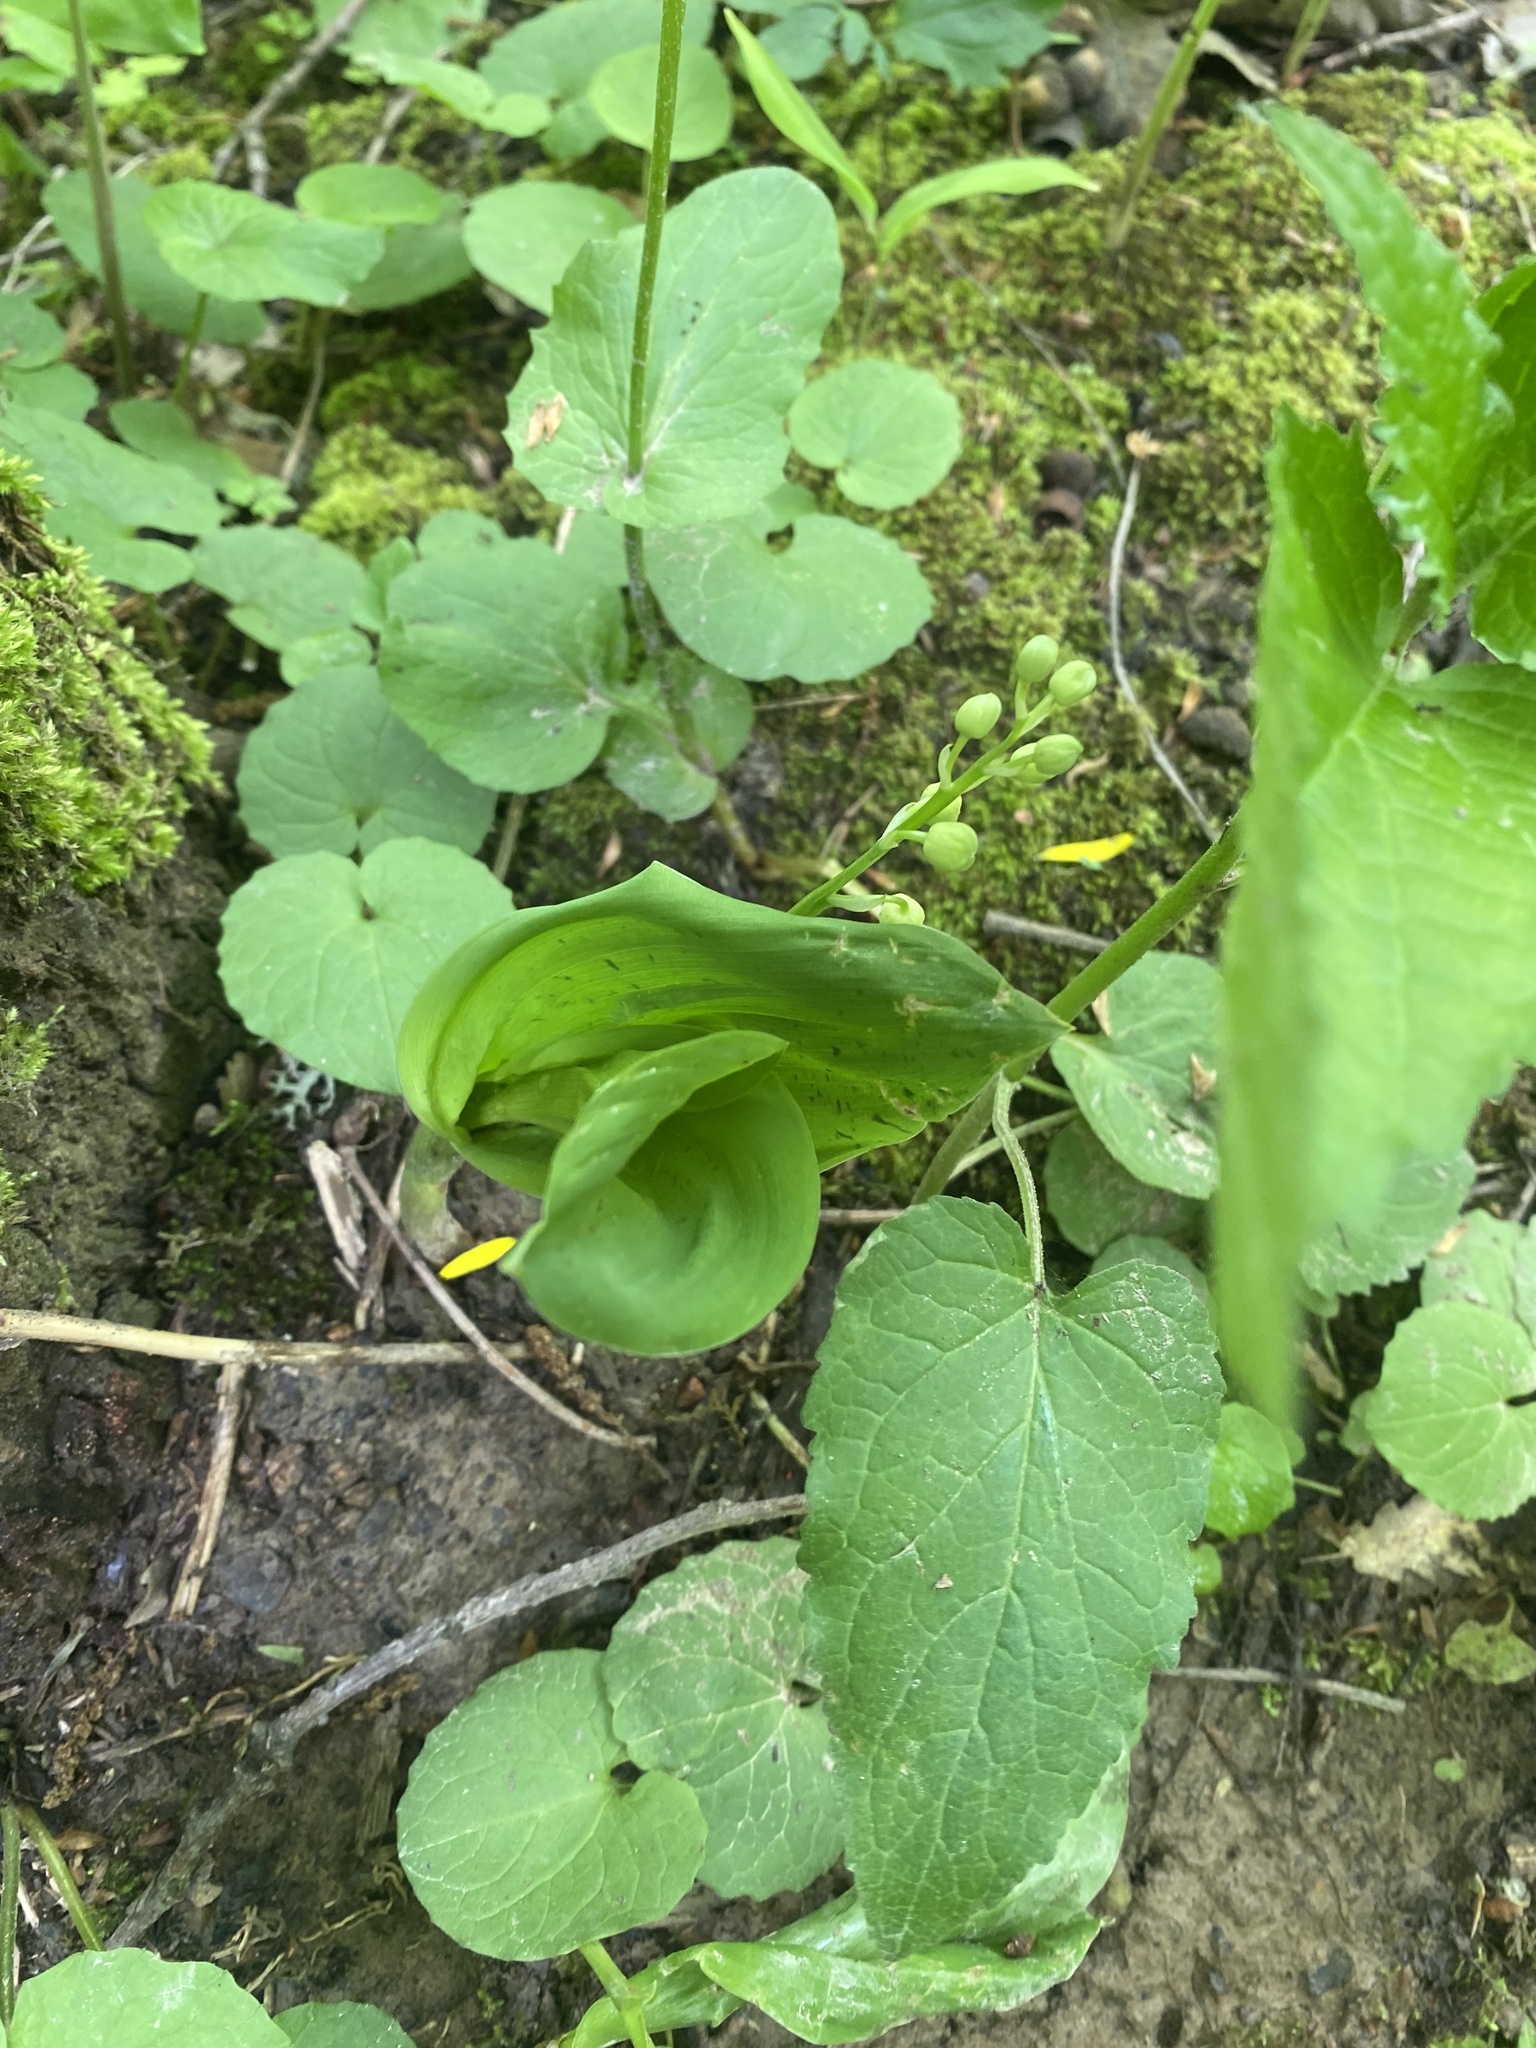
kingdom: Plantae
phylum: Tracheophyta
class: Liliopsida
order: Asparagales
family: Asparagaceae
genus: Convallaria
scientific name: Convallaria majalis
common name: Lily-of-the-valley
